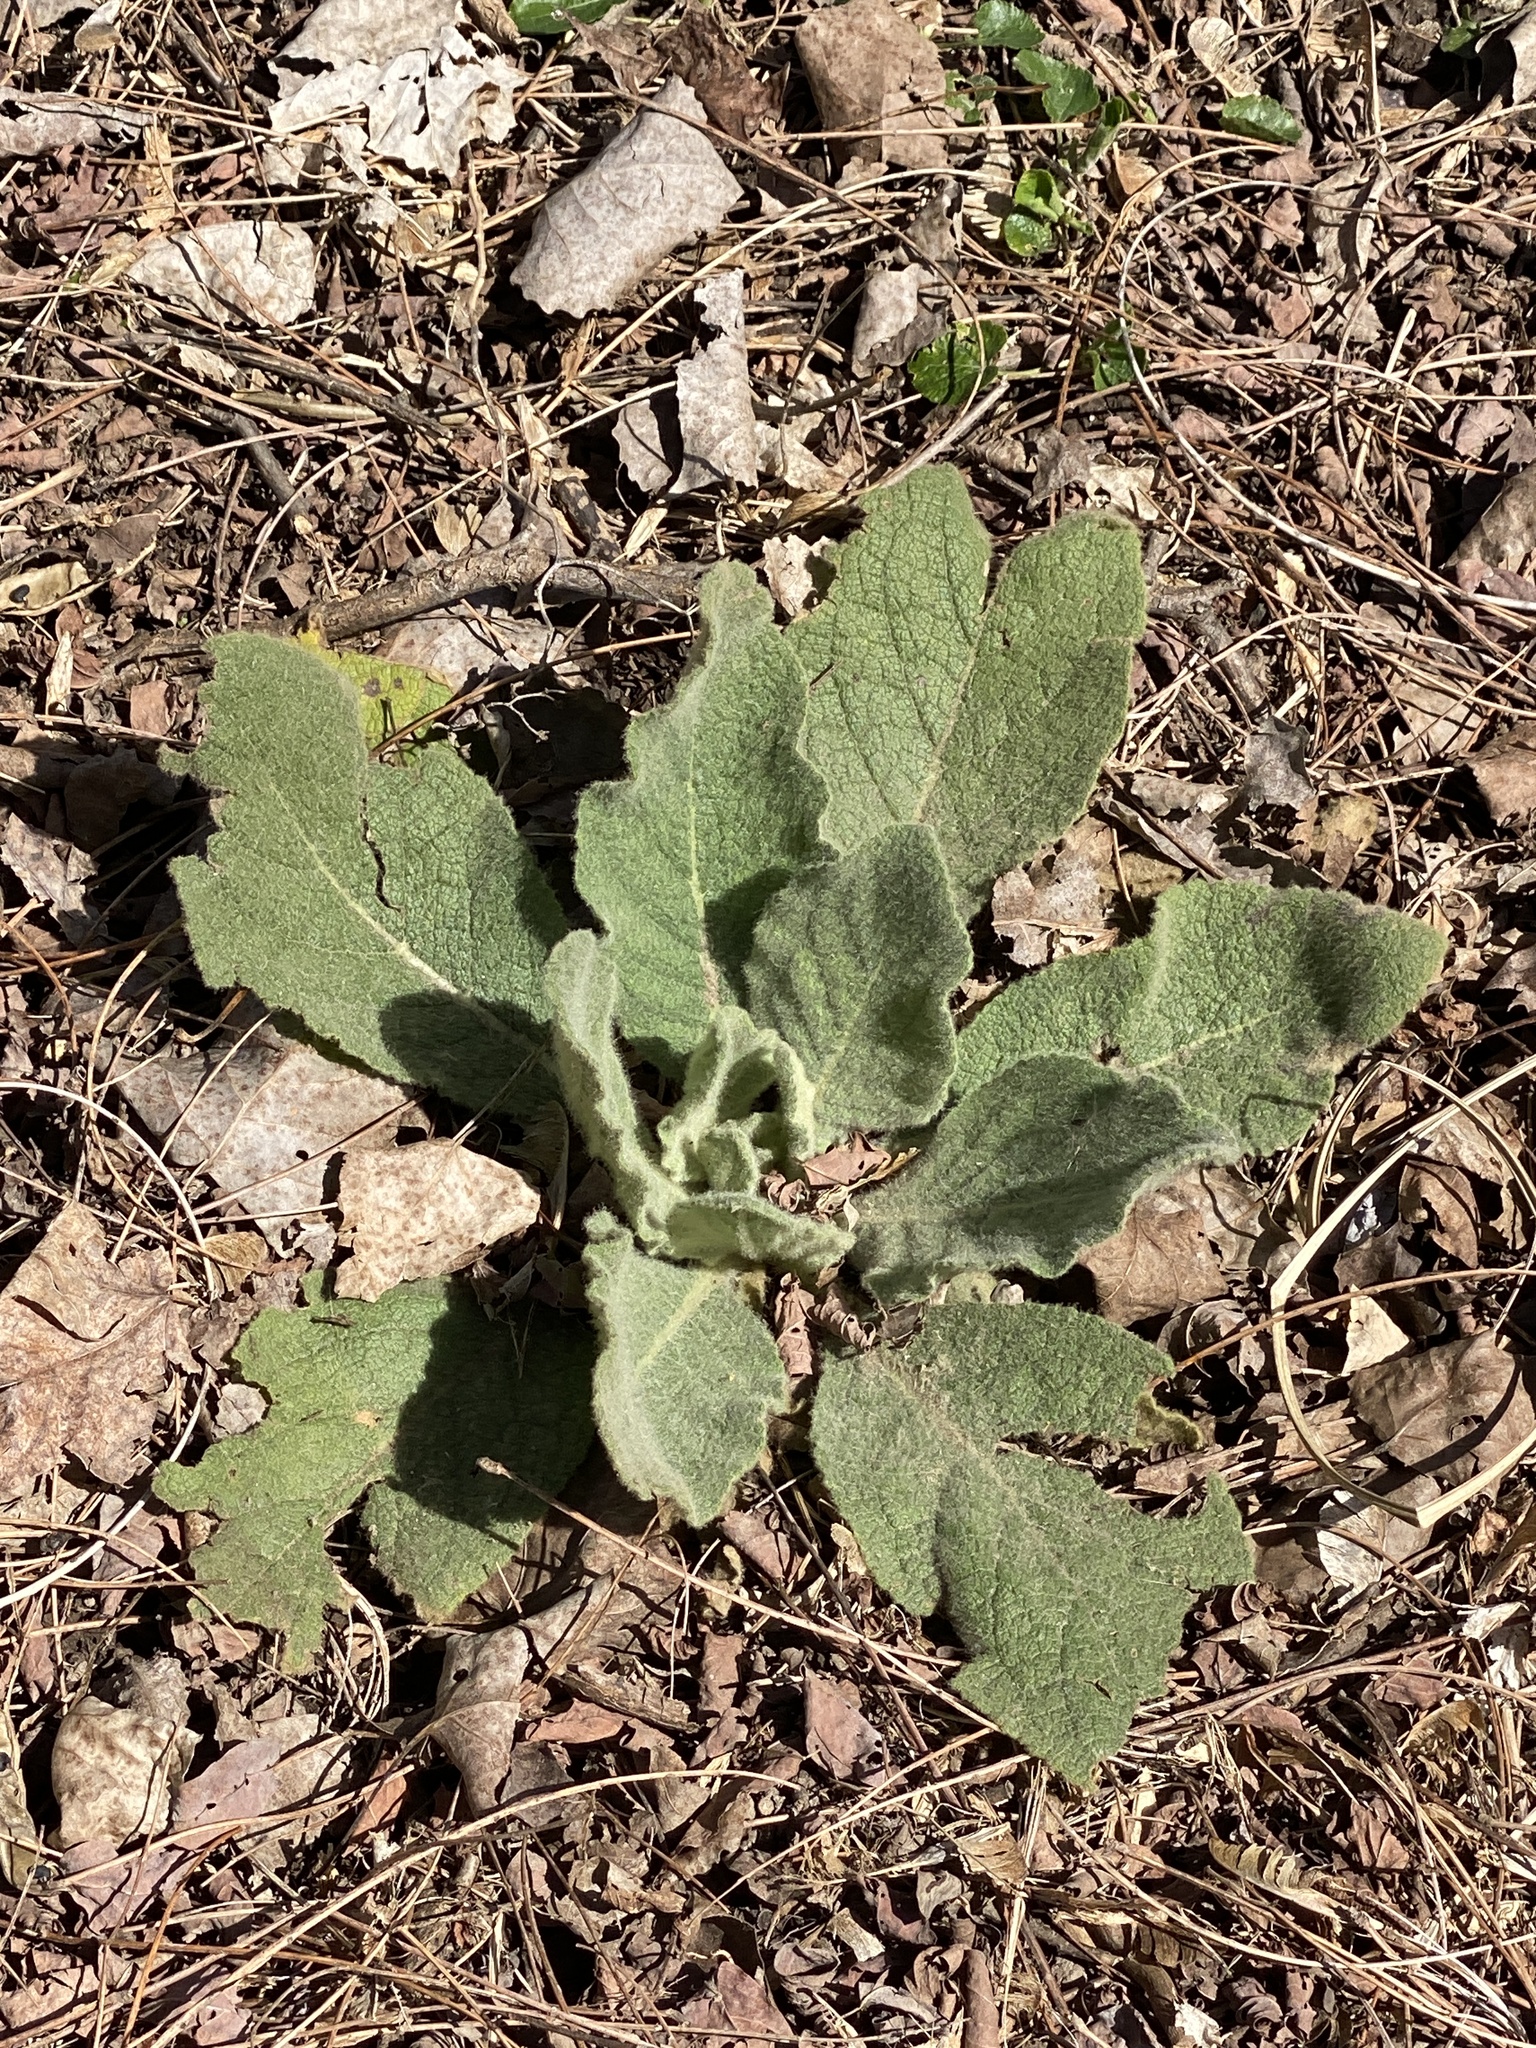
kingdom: Plantae
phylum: Tracheophyta
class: Magnoliopsida
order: Lamiales
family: Scrophulariaceae
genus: Verbascum
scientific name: Verbascum thapsus
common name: Common mullein
